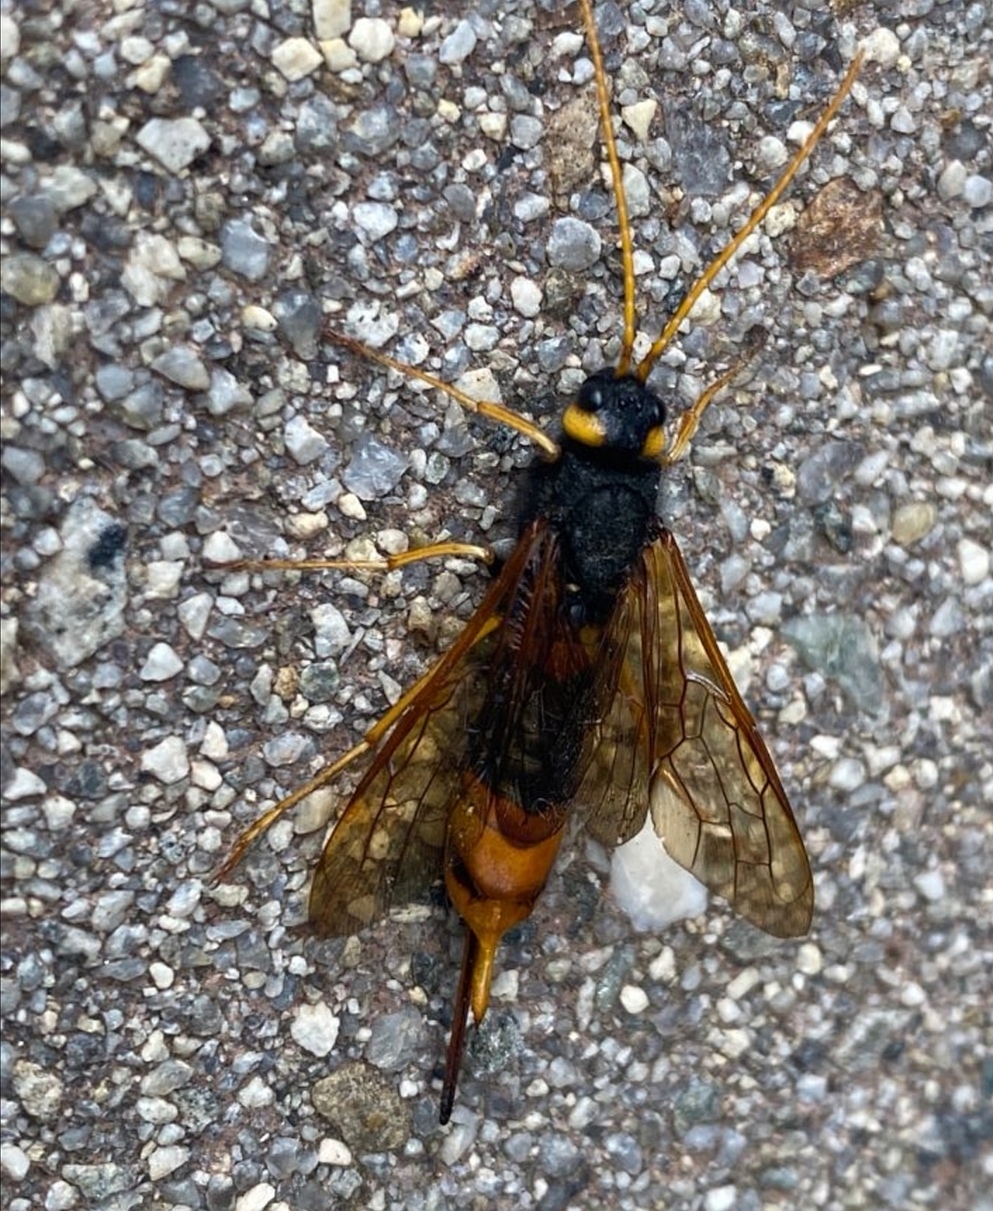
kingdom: Animalia
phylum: Arthropoda
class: Insecta
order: Hymenoptera
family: Siricidae
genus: Urocerus
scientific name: Urocerus gigas
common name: Giant woodwasp
